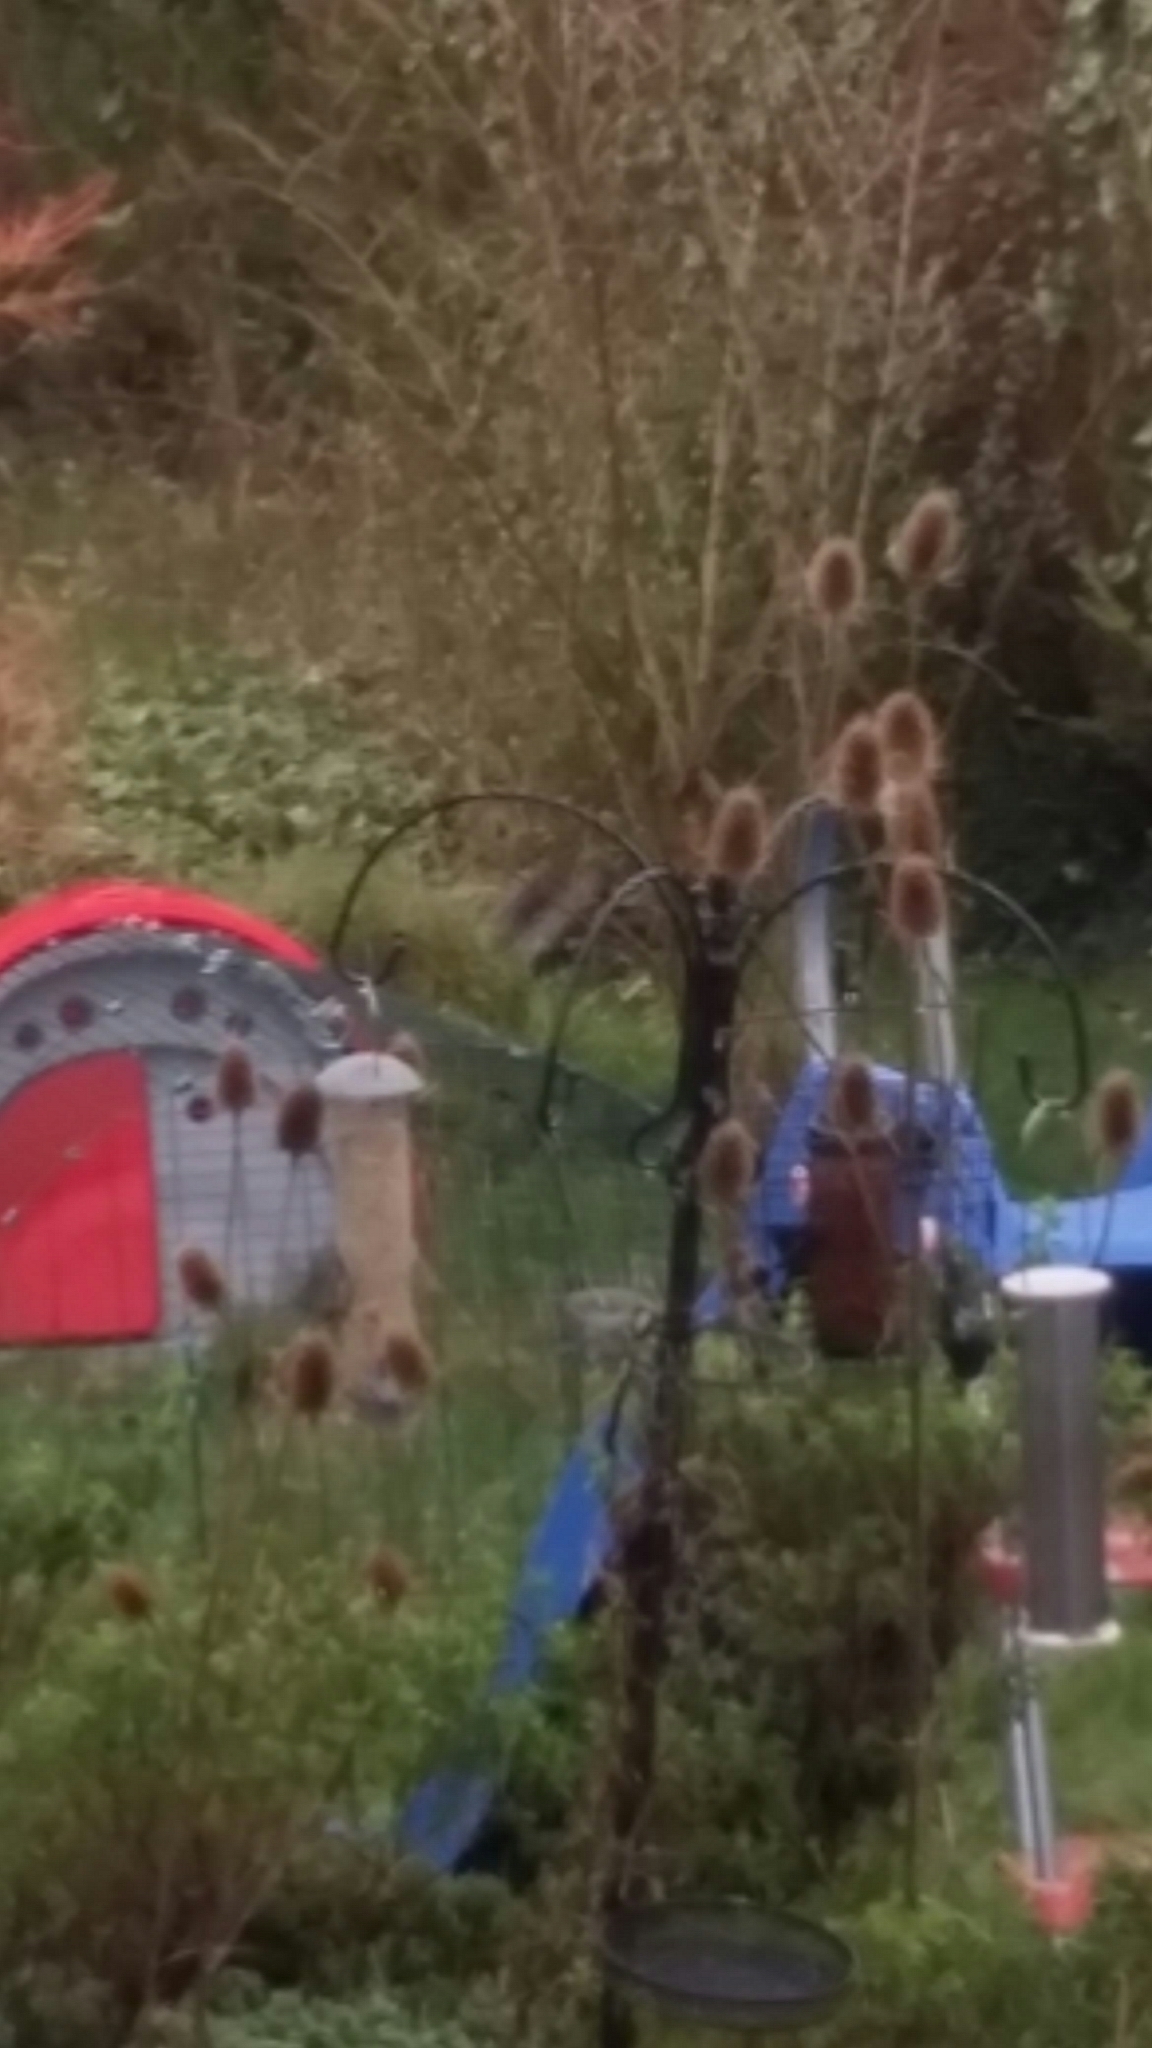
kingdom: Plantae
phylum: Tracheophyta
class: Magnoliopsida
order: Dipsacales
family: Caprifoliaceae
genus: Dipsacus
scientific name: Dipsacus fullonum
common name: Teasel
